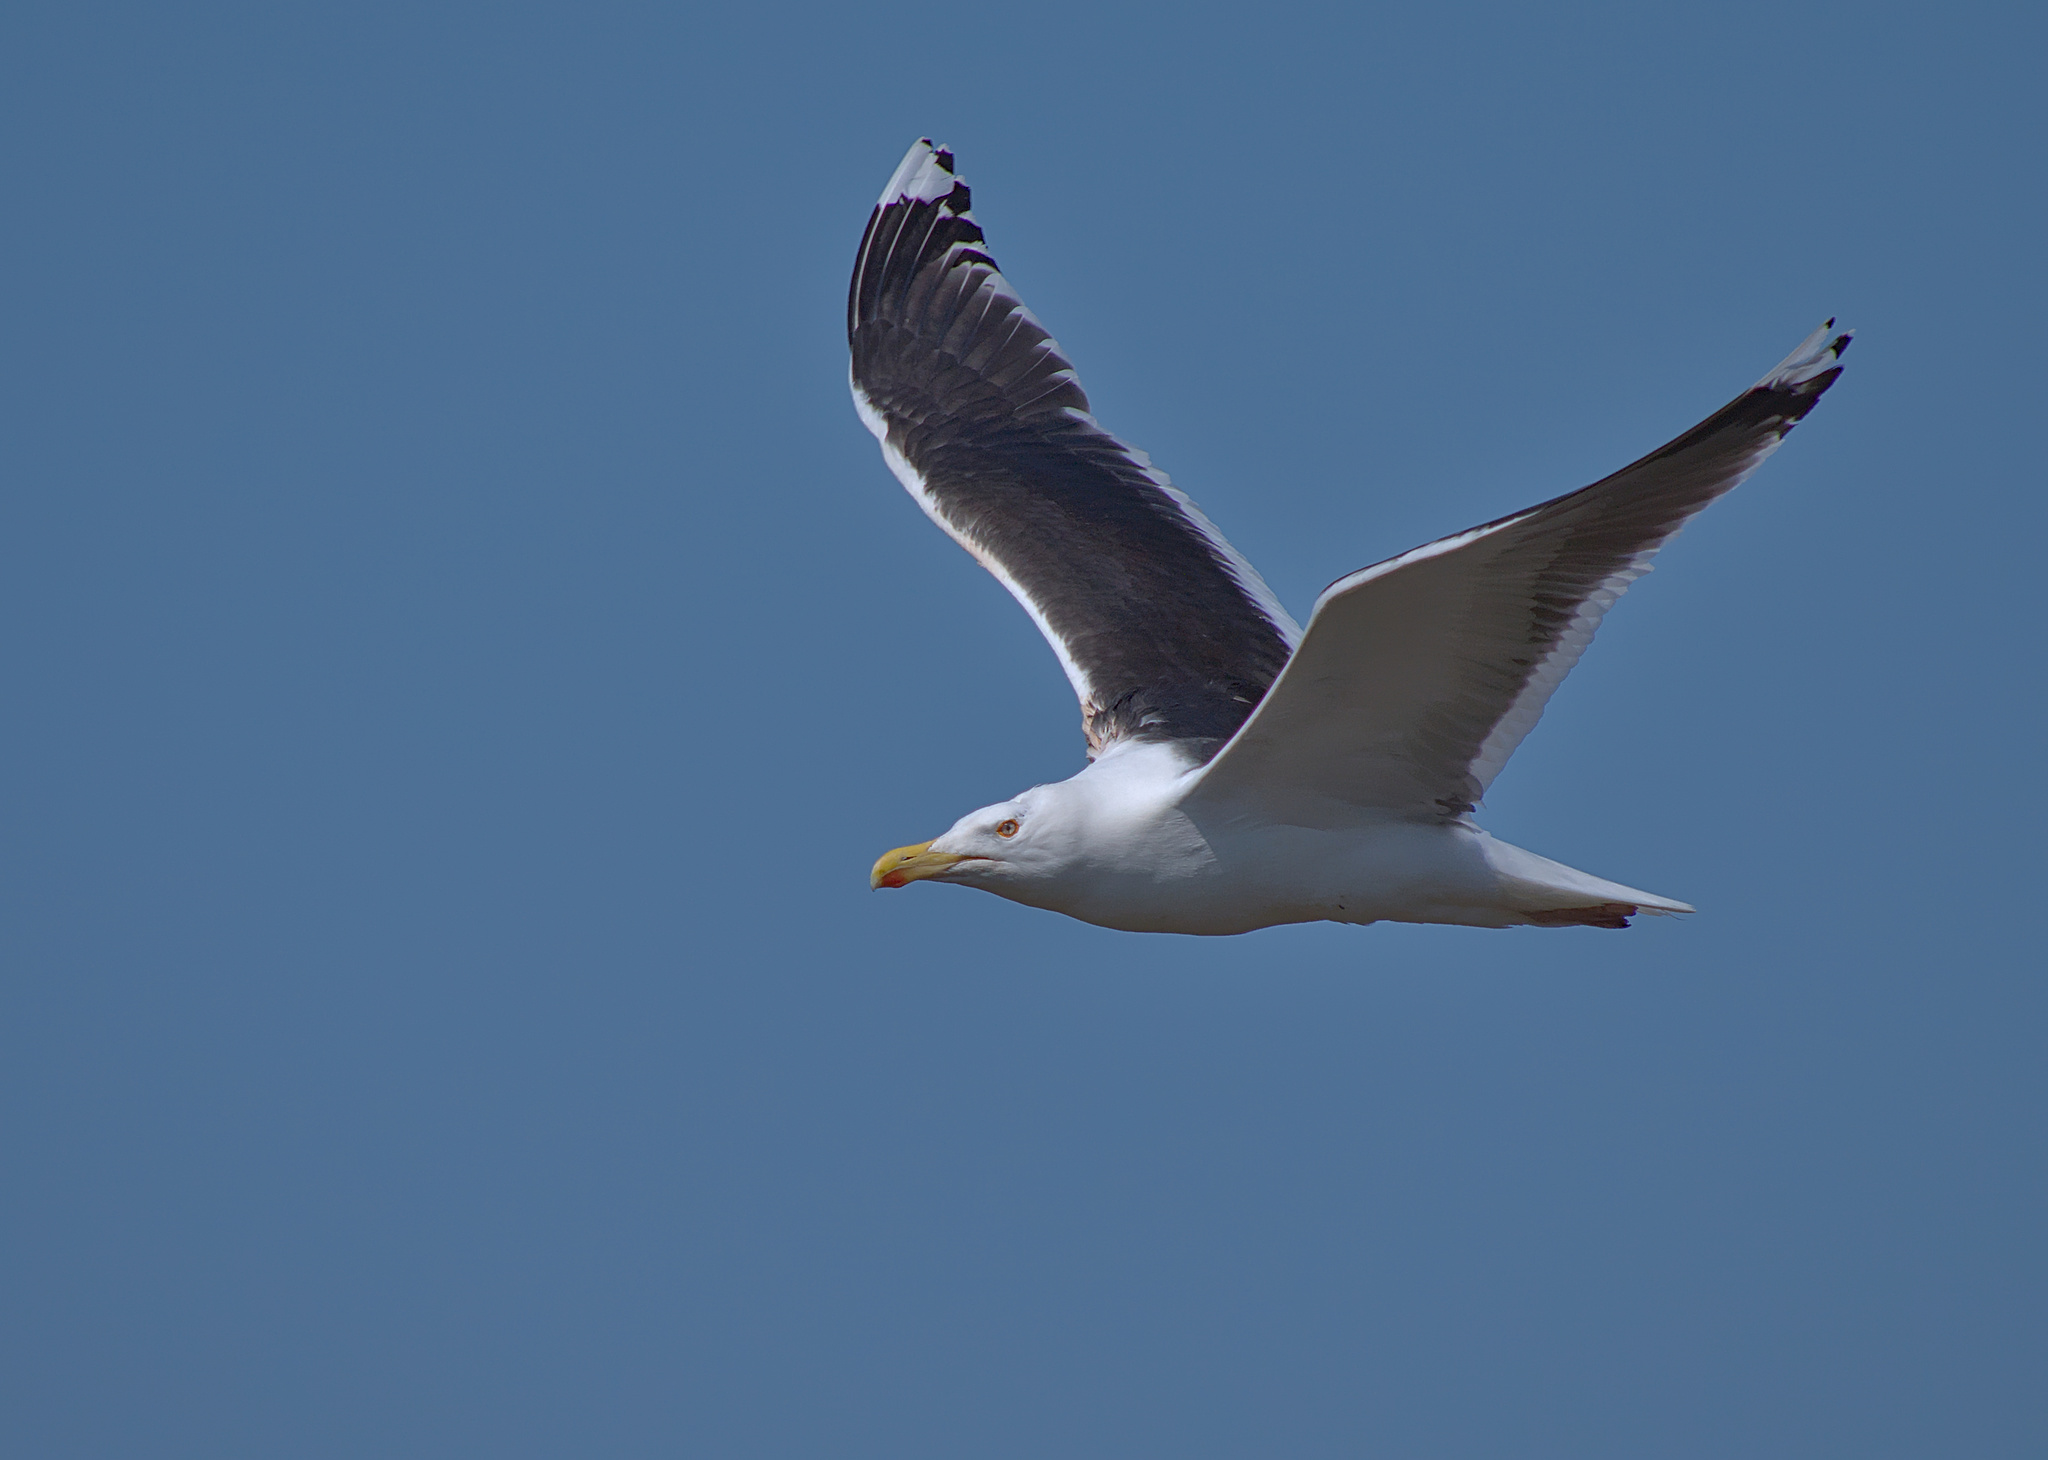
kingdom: Animalia
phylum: Chordata
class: Aves
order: Charadriiformes
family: Laridae
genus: Larus
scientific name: Larus marinus
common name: Great black-backed gull
